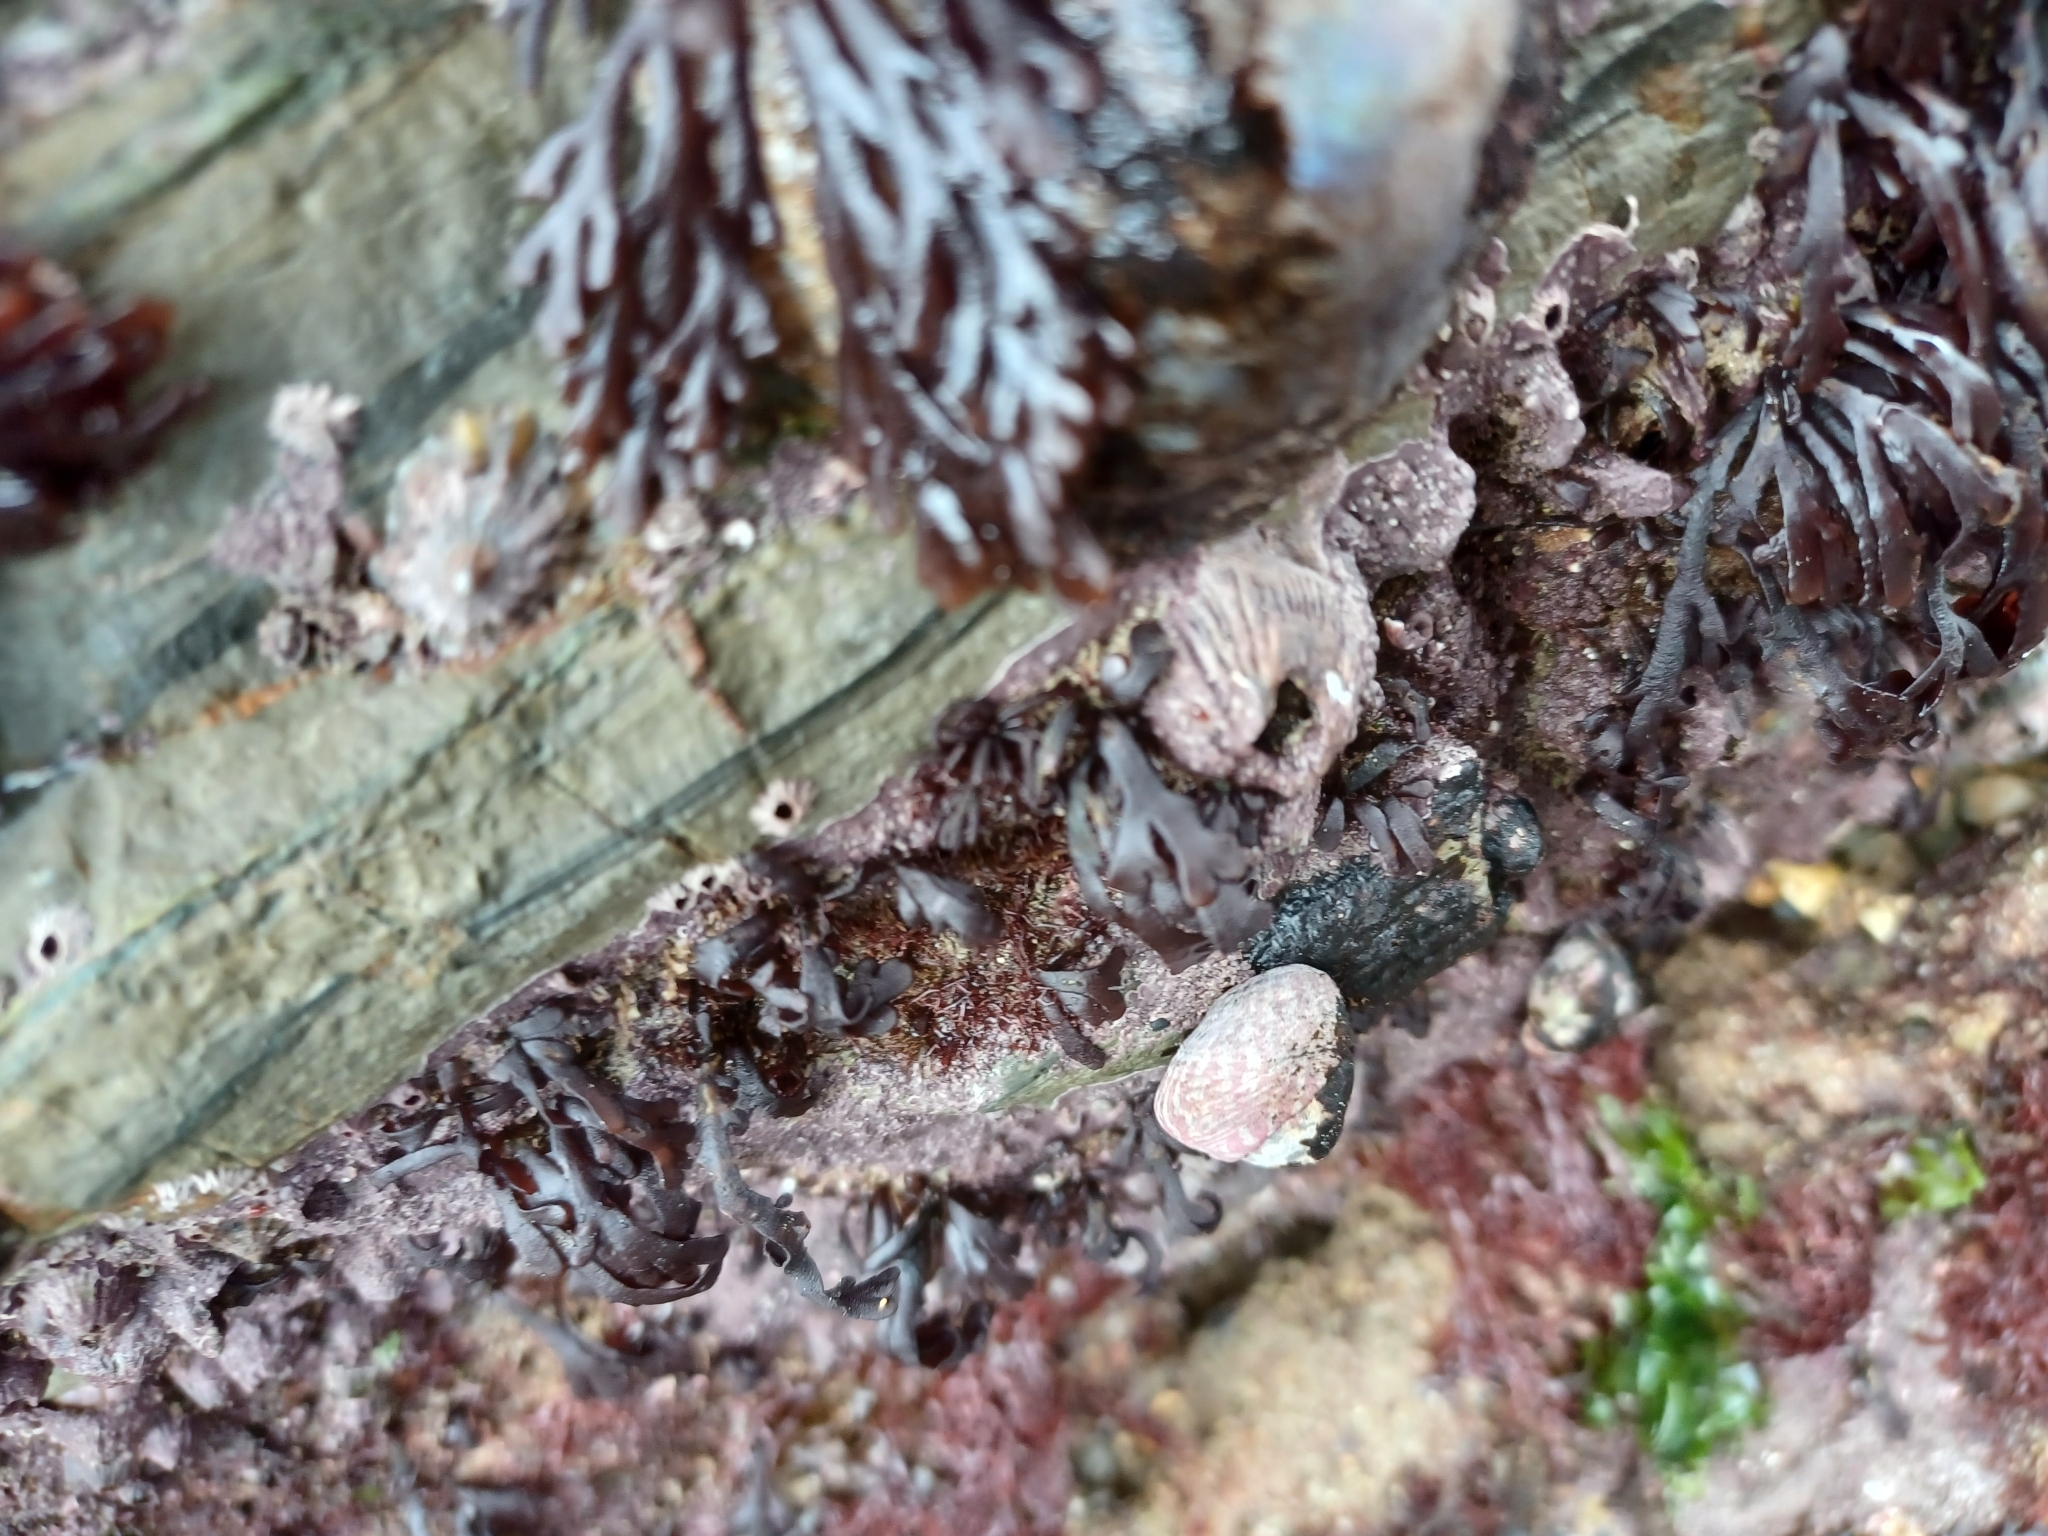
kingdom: Animalia
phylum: Mollusca
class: Gastropoda
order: Trochida
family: Trochidae
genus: Steromphala
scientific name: Steromphala umbilicalis
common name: Flat top shell
